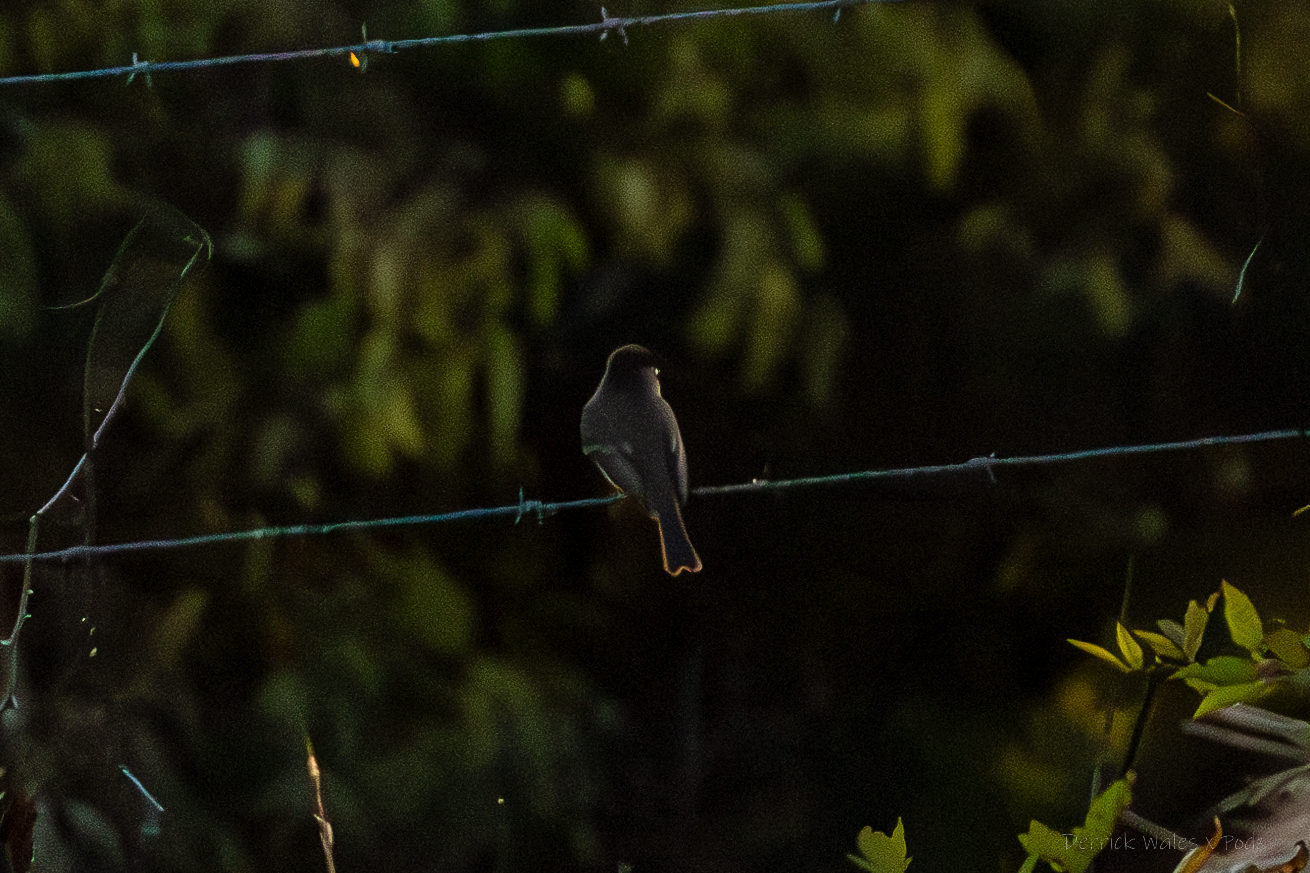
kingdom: Animalia
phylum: Chordata
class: Aves
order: Passeriformes
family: Tyrannidae
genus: Sayornis
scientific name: Sayornis phoebe
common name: Eastern phoebe
